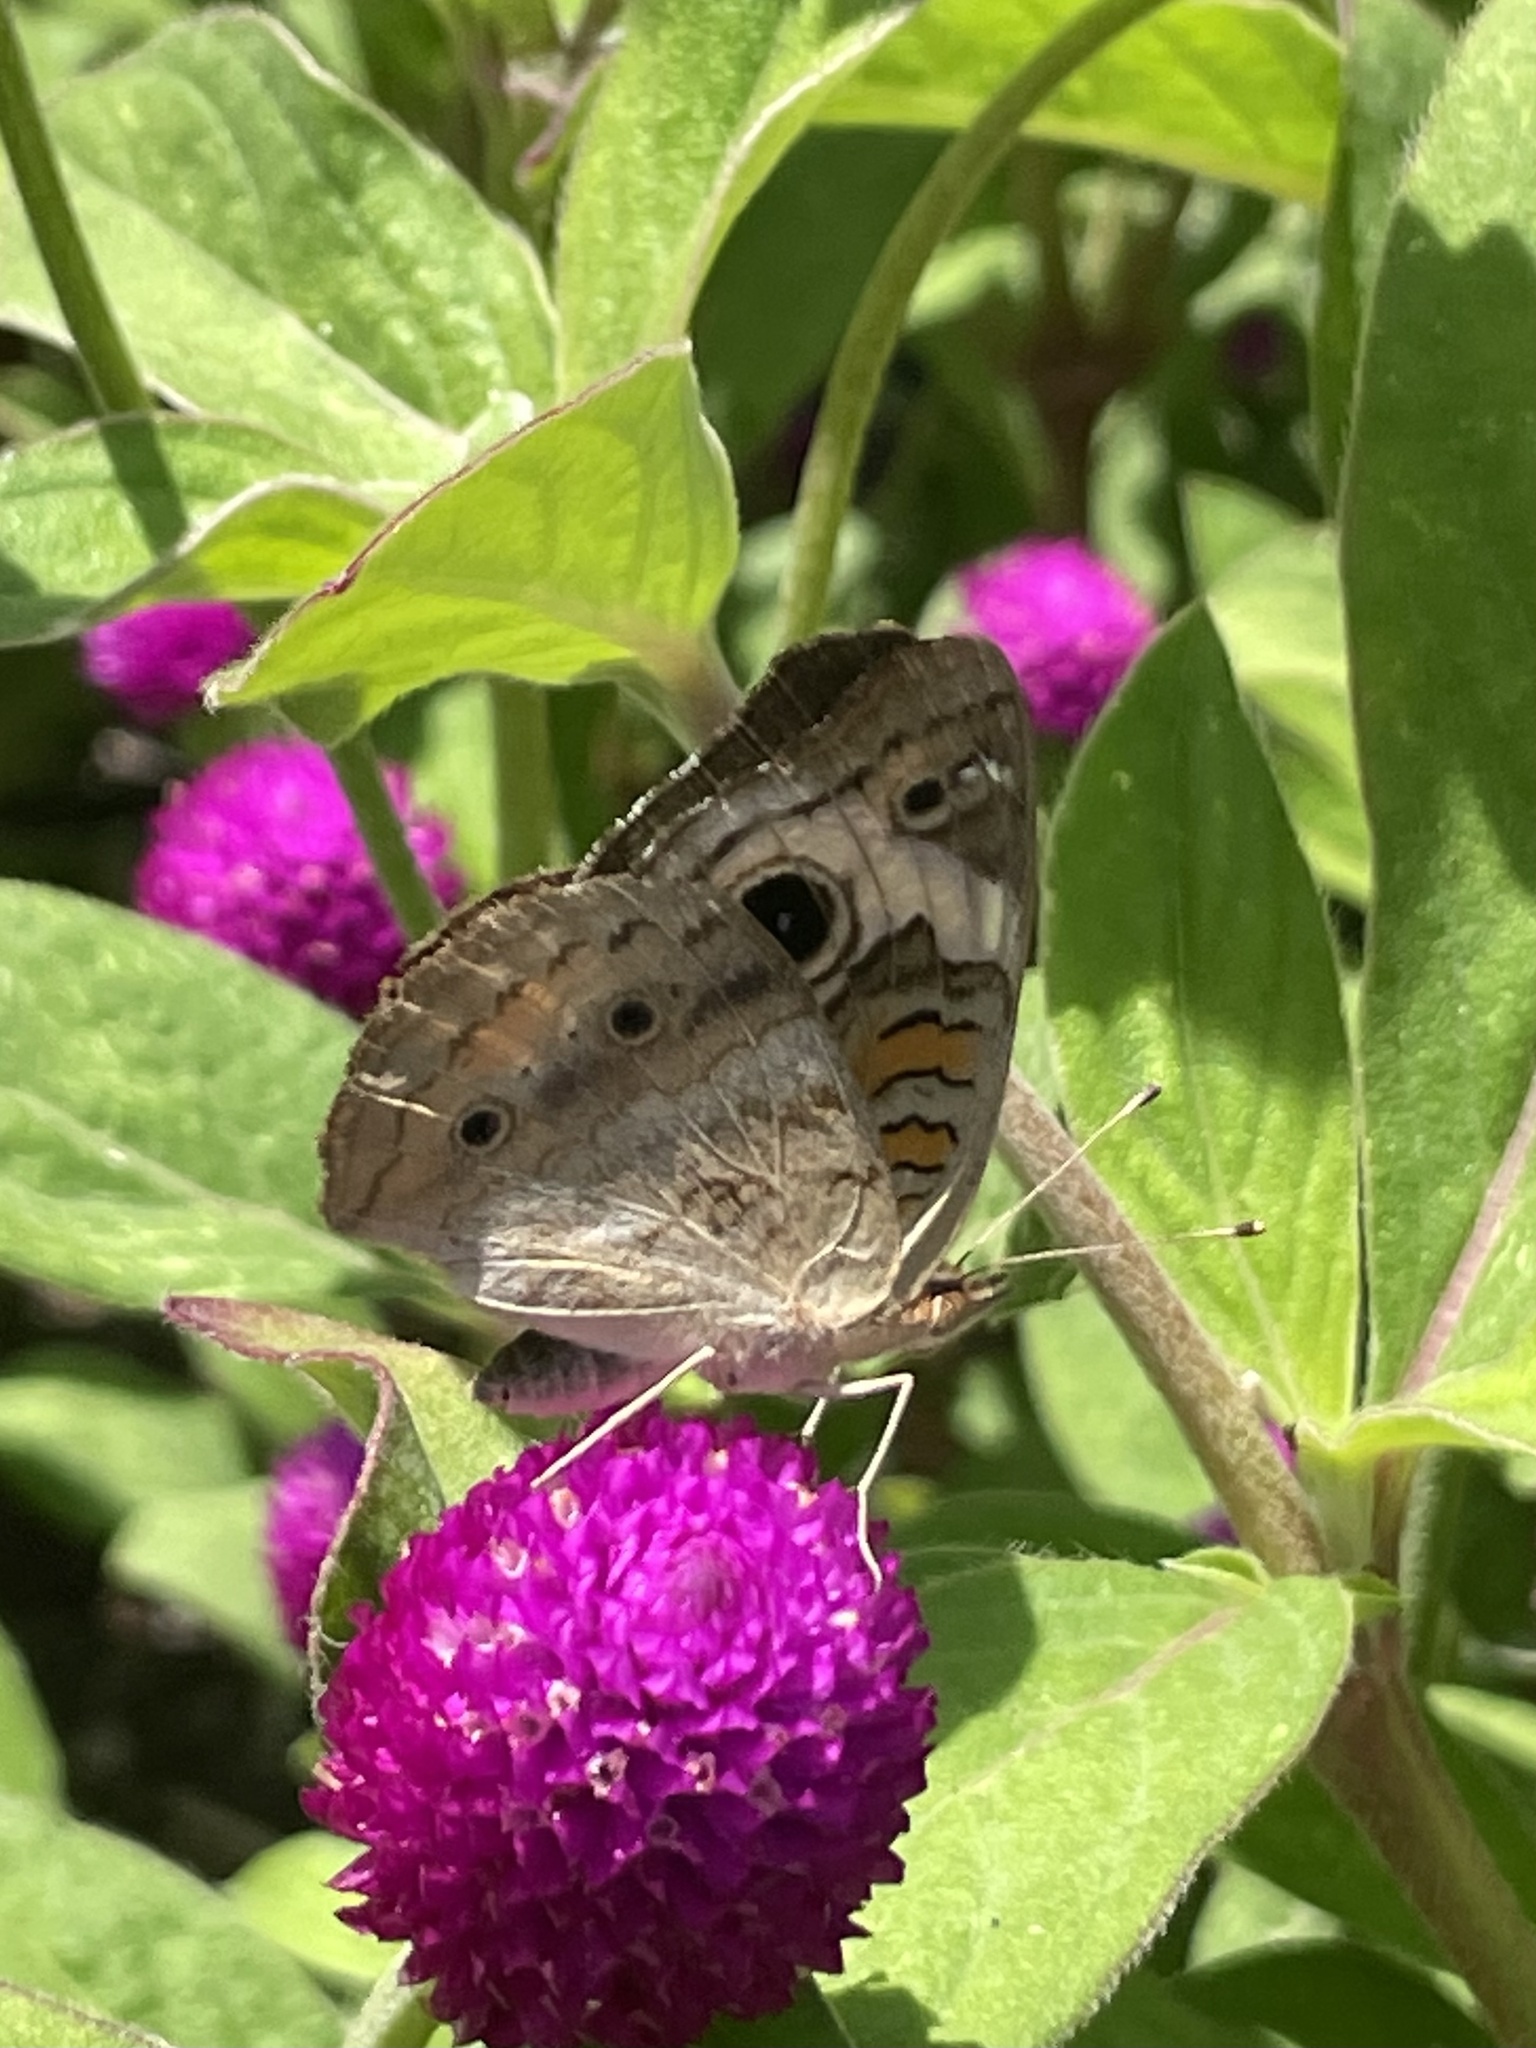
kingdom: Animalia
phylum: Arthropoda
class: Insecta
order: Lepidoptera
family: Nymphalidae
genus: Junonia
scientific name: Junonia coenia
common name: Common buckeye
